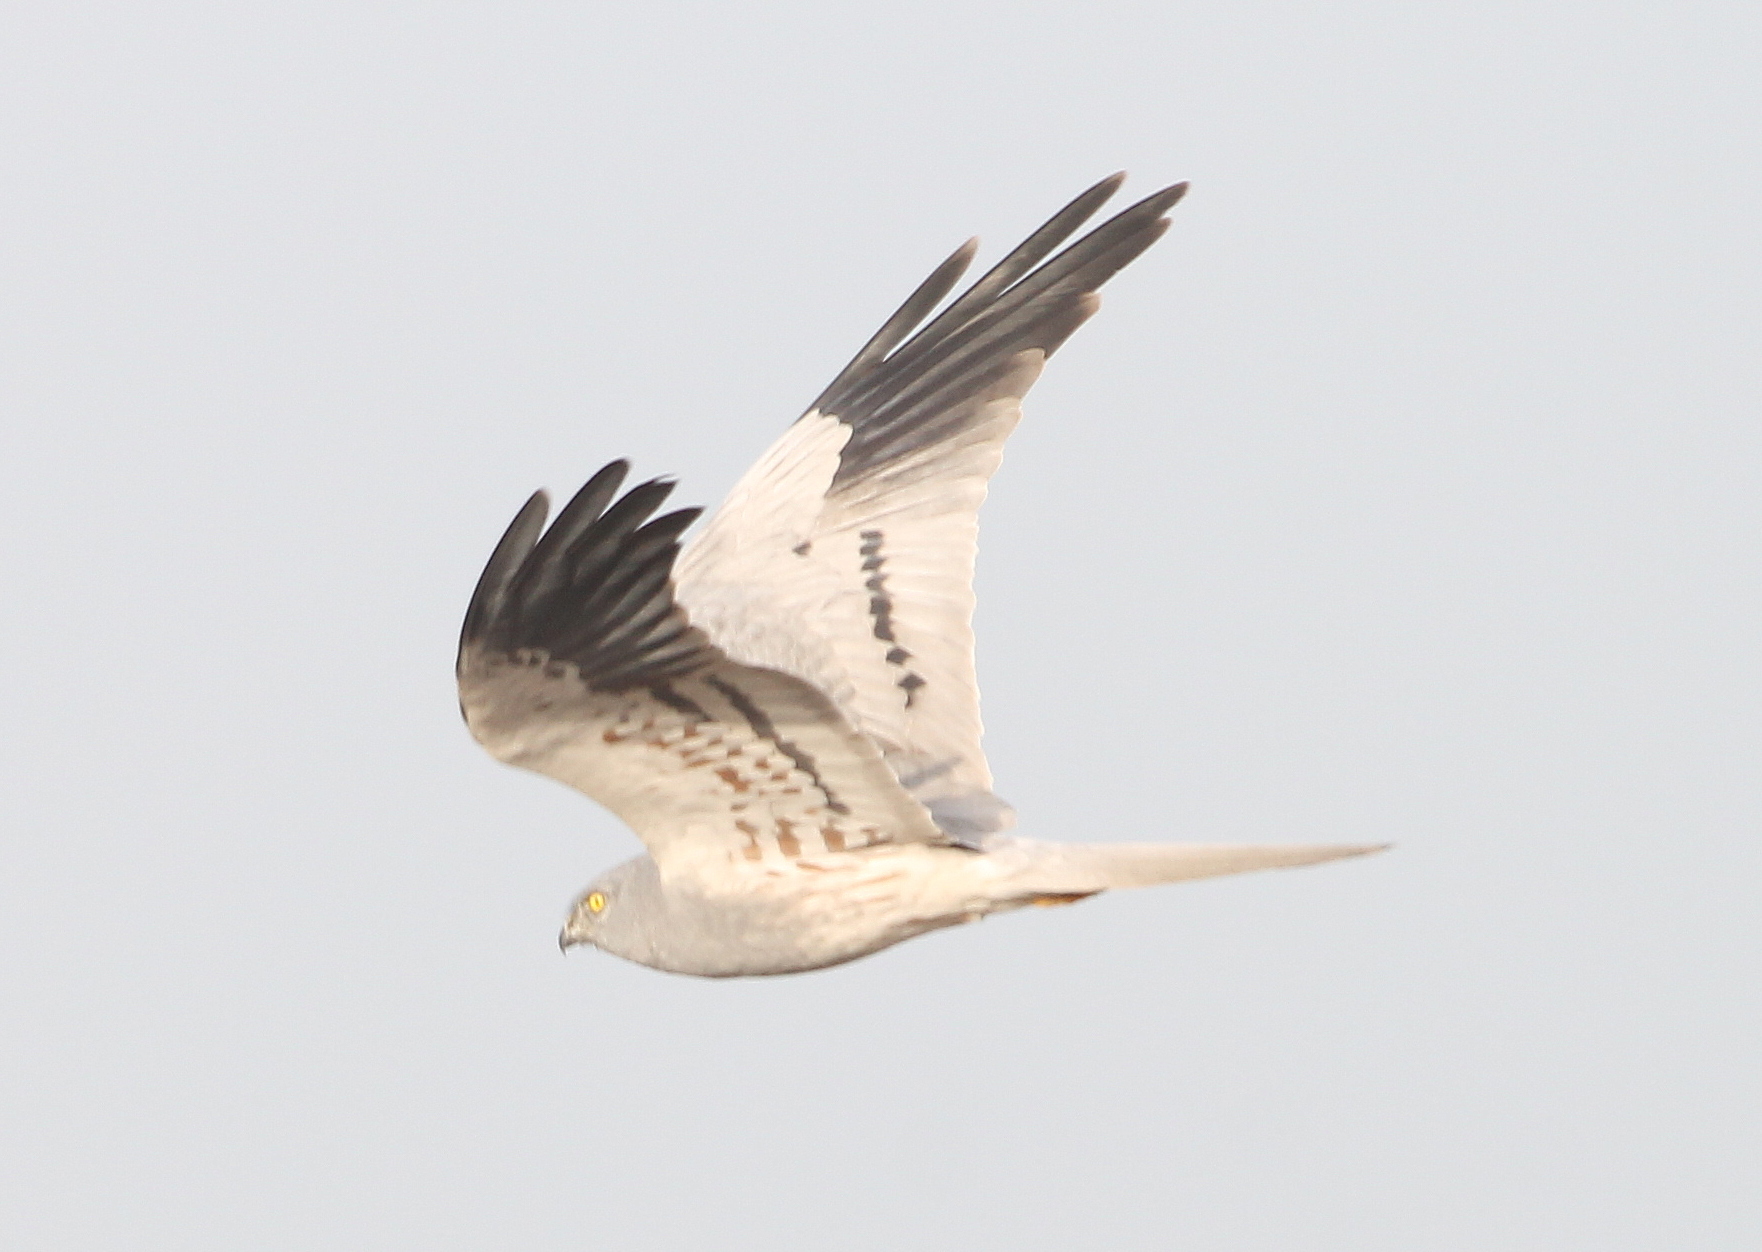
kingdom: Animalia
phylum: Chordata
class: Aves
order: Accipitriformes
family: Accipitridae
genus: Circus
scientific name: Circus pygargus
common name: Montagu's harrier
